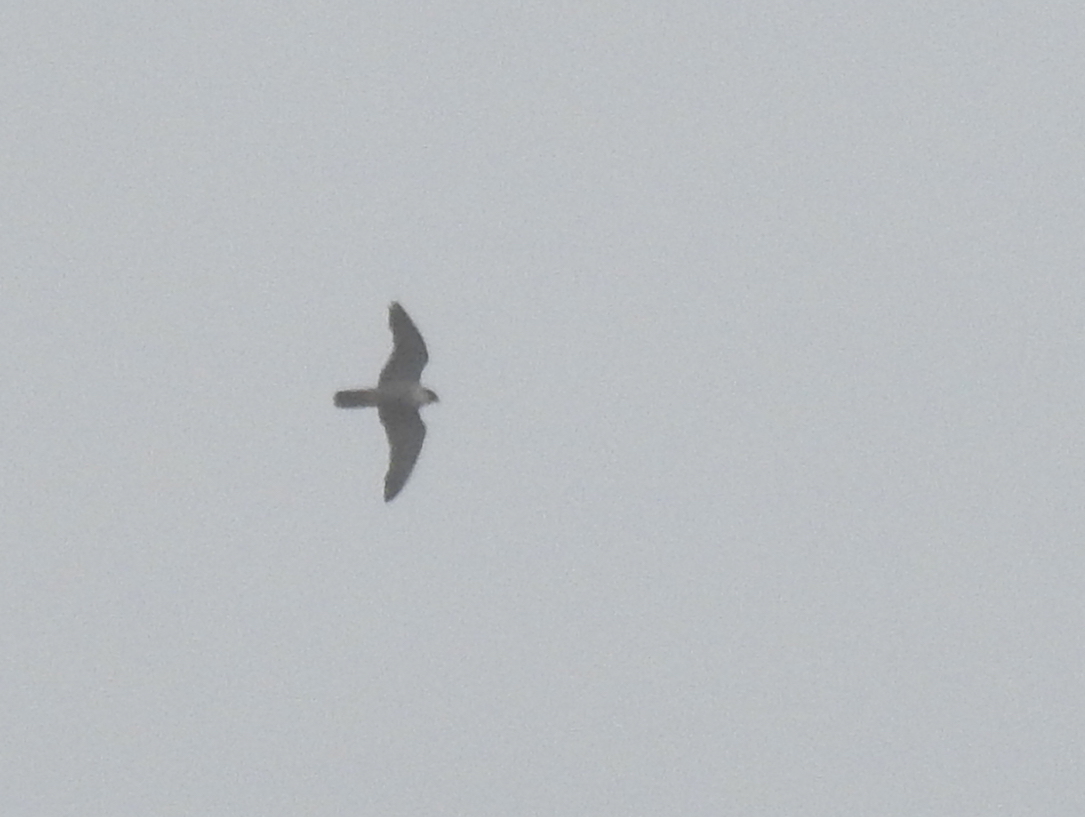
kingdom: Animalia
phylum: Chordata
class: Aves
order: Falconiformes
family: Falconidae
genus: Falco
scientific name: Falco peregrinus
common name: Peregrine falcon
